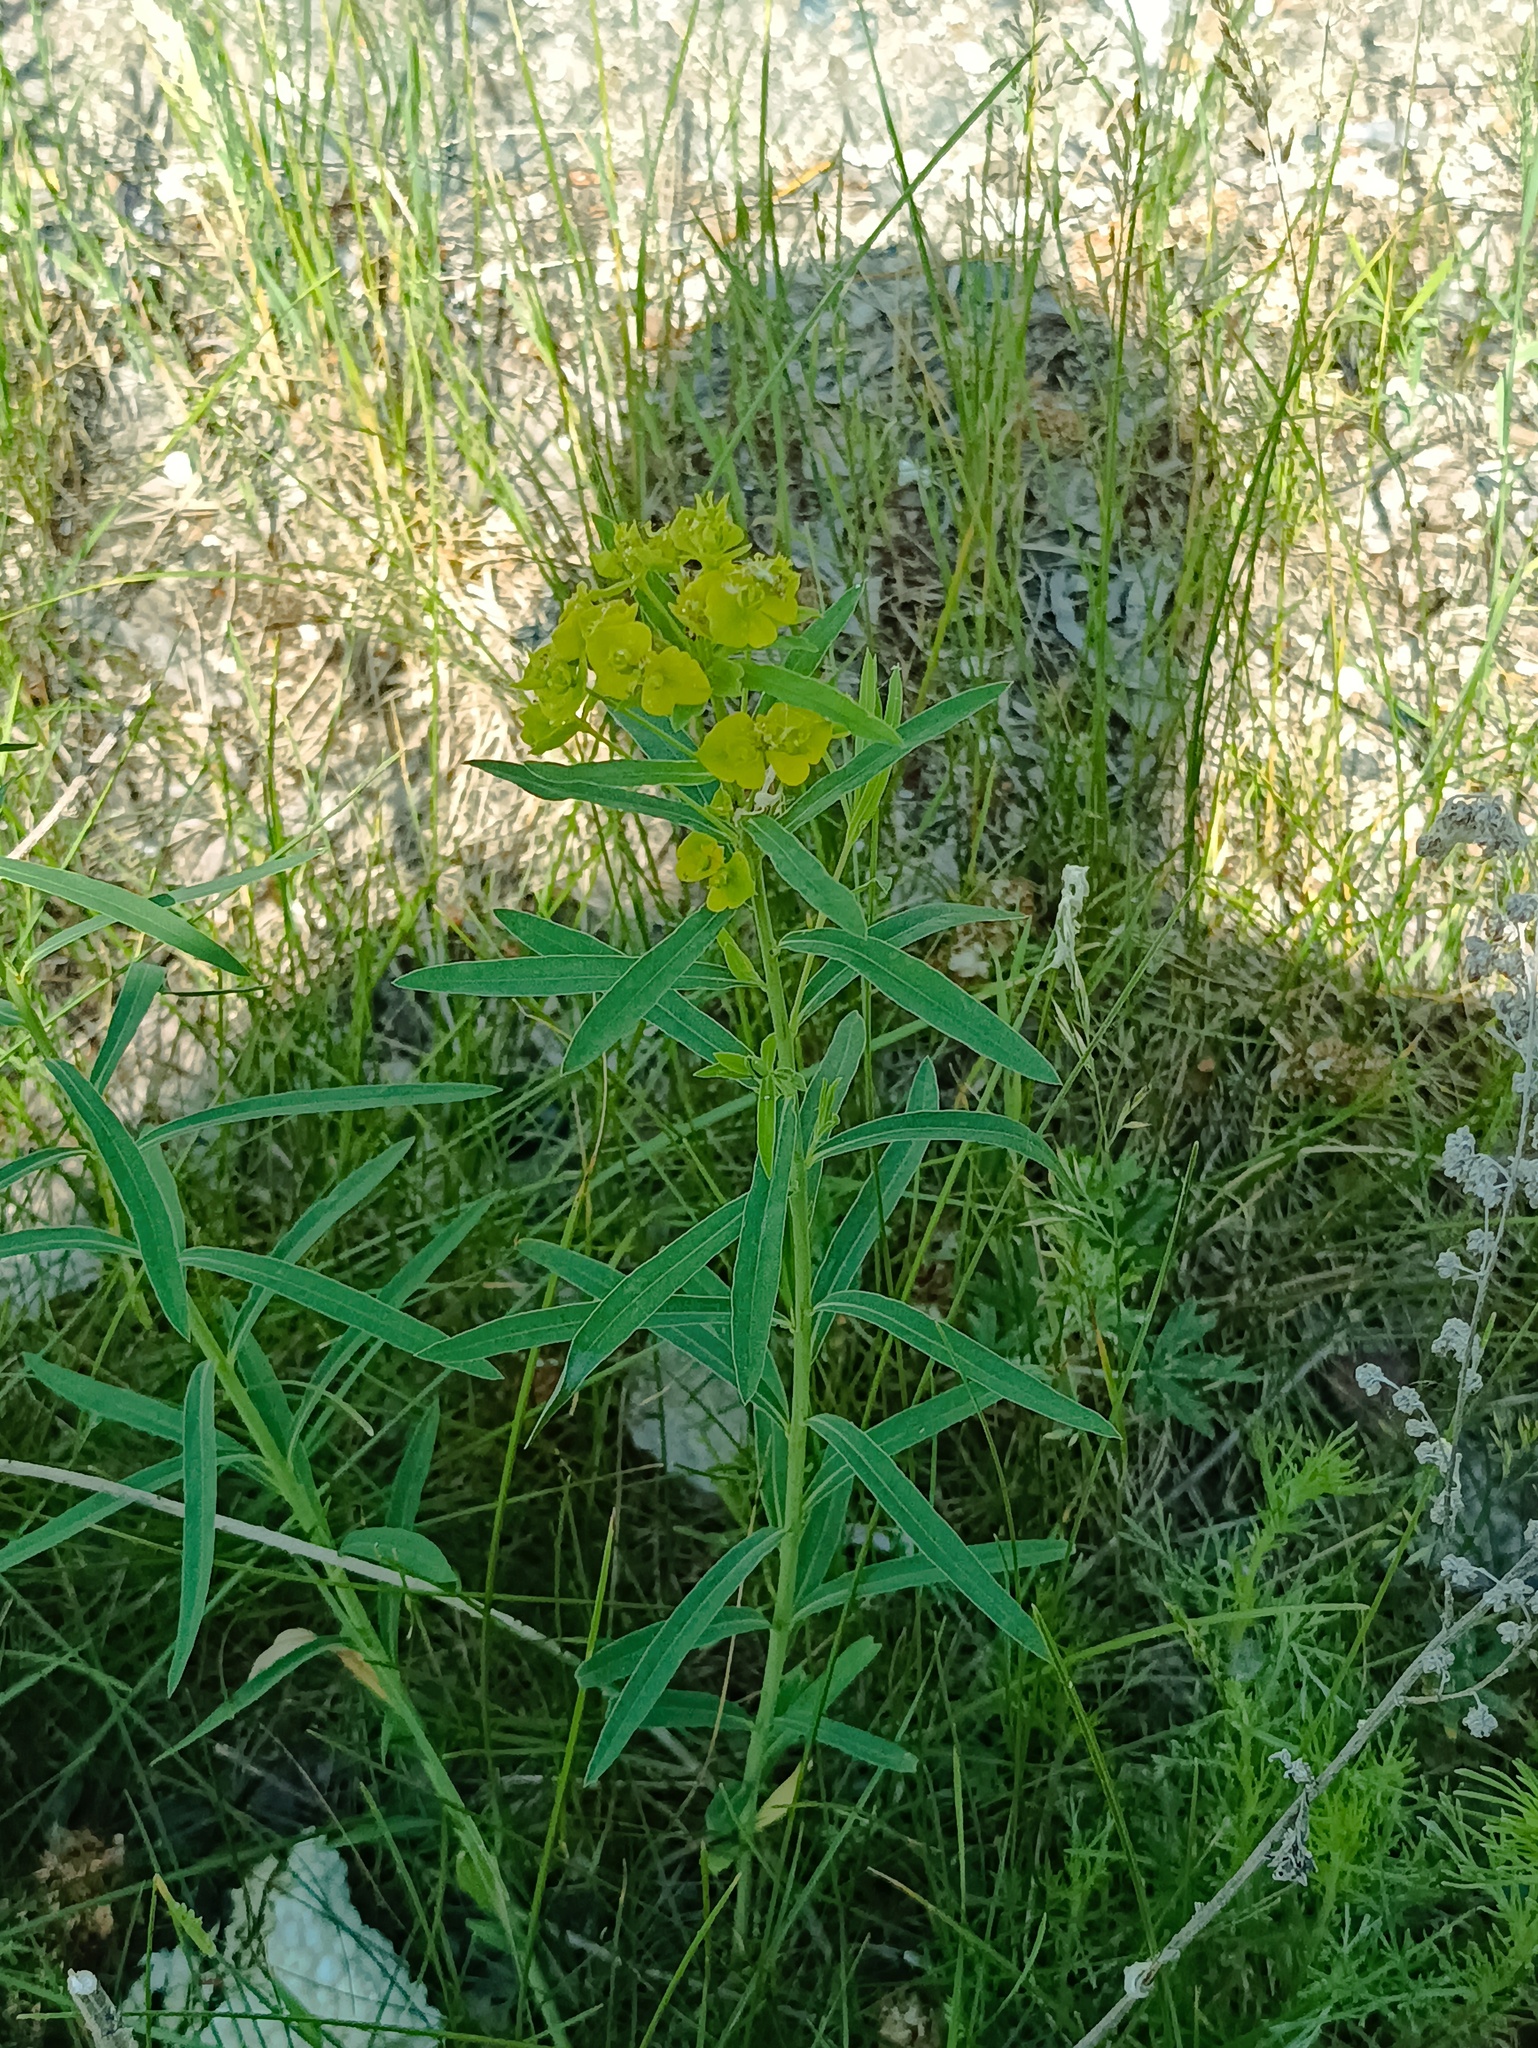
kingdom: Plantae
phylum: Tracheophyta
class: Magnoliopsida
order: Malpighiales
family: Euphorbiaceae
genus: Euphorbia
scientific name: Euphorbia virgata
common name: Leafy spurge
